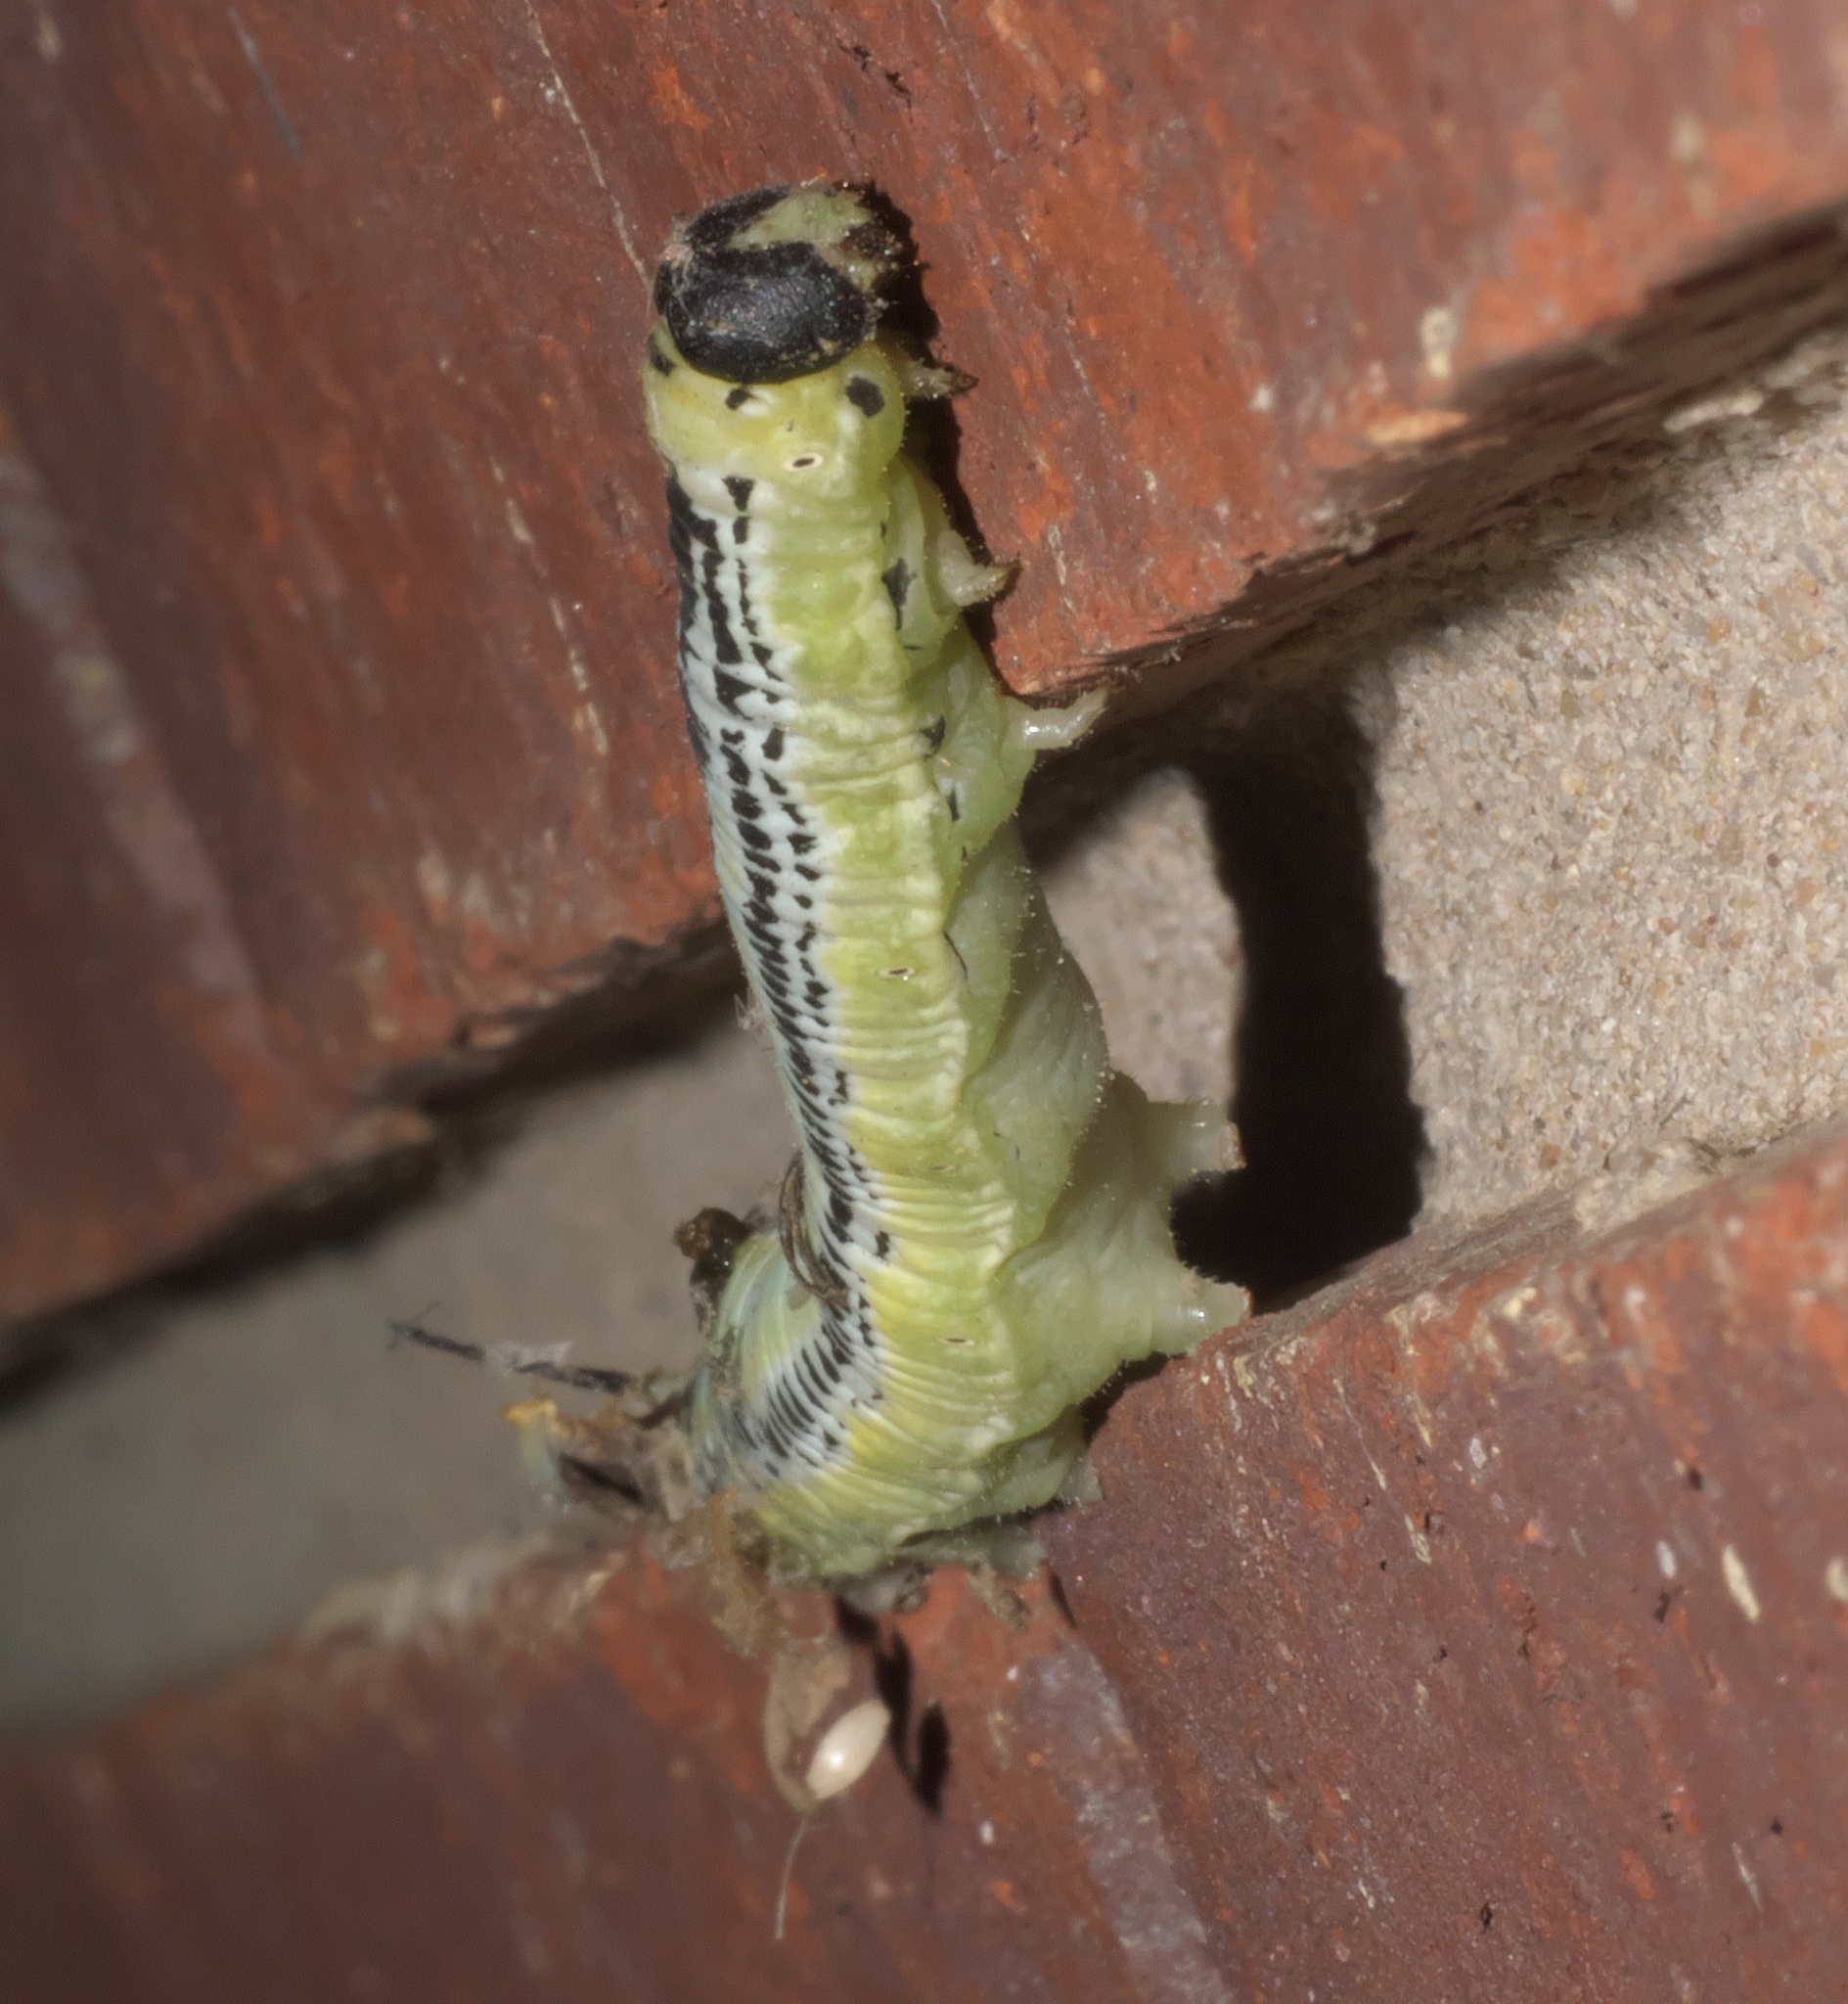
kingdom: Animalia
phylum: Arthropoda
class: Insecta
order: Lepidoptera
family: Sphingidae
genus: Ceratomia
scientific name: Ceratomia catalpae
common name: Catalpa hornworm
